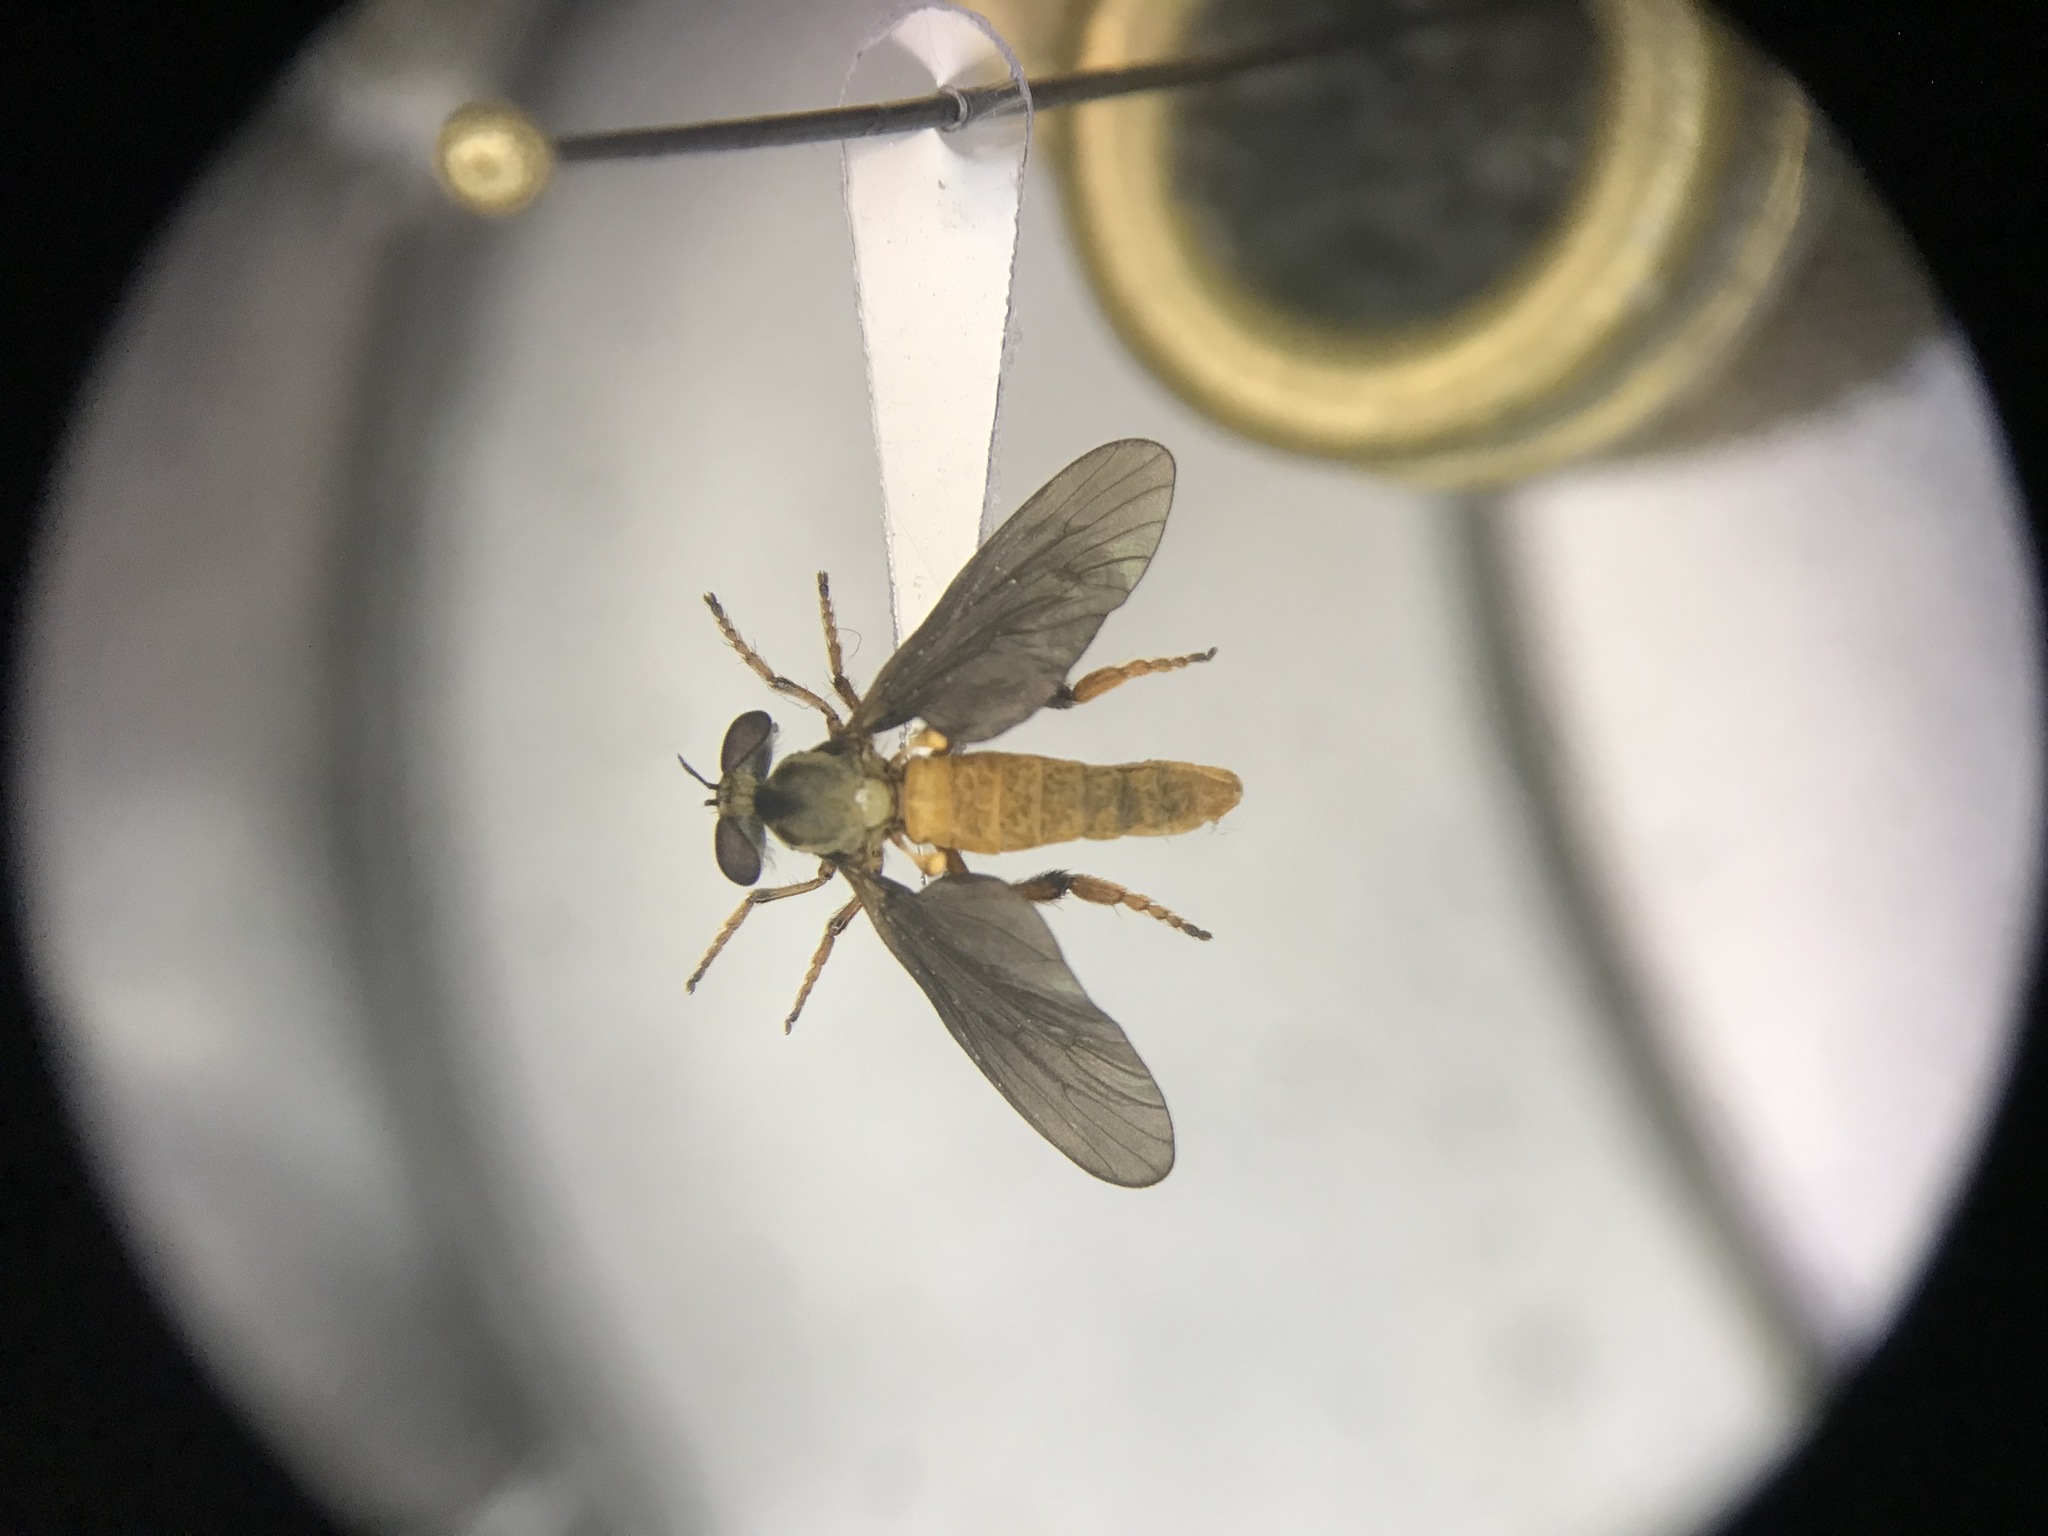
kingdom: Animalia
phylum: Arthropoda
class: Insecta
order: Diptera
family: Asilidae
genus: Holcocephala
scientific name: Holcocephala abdominalis
